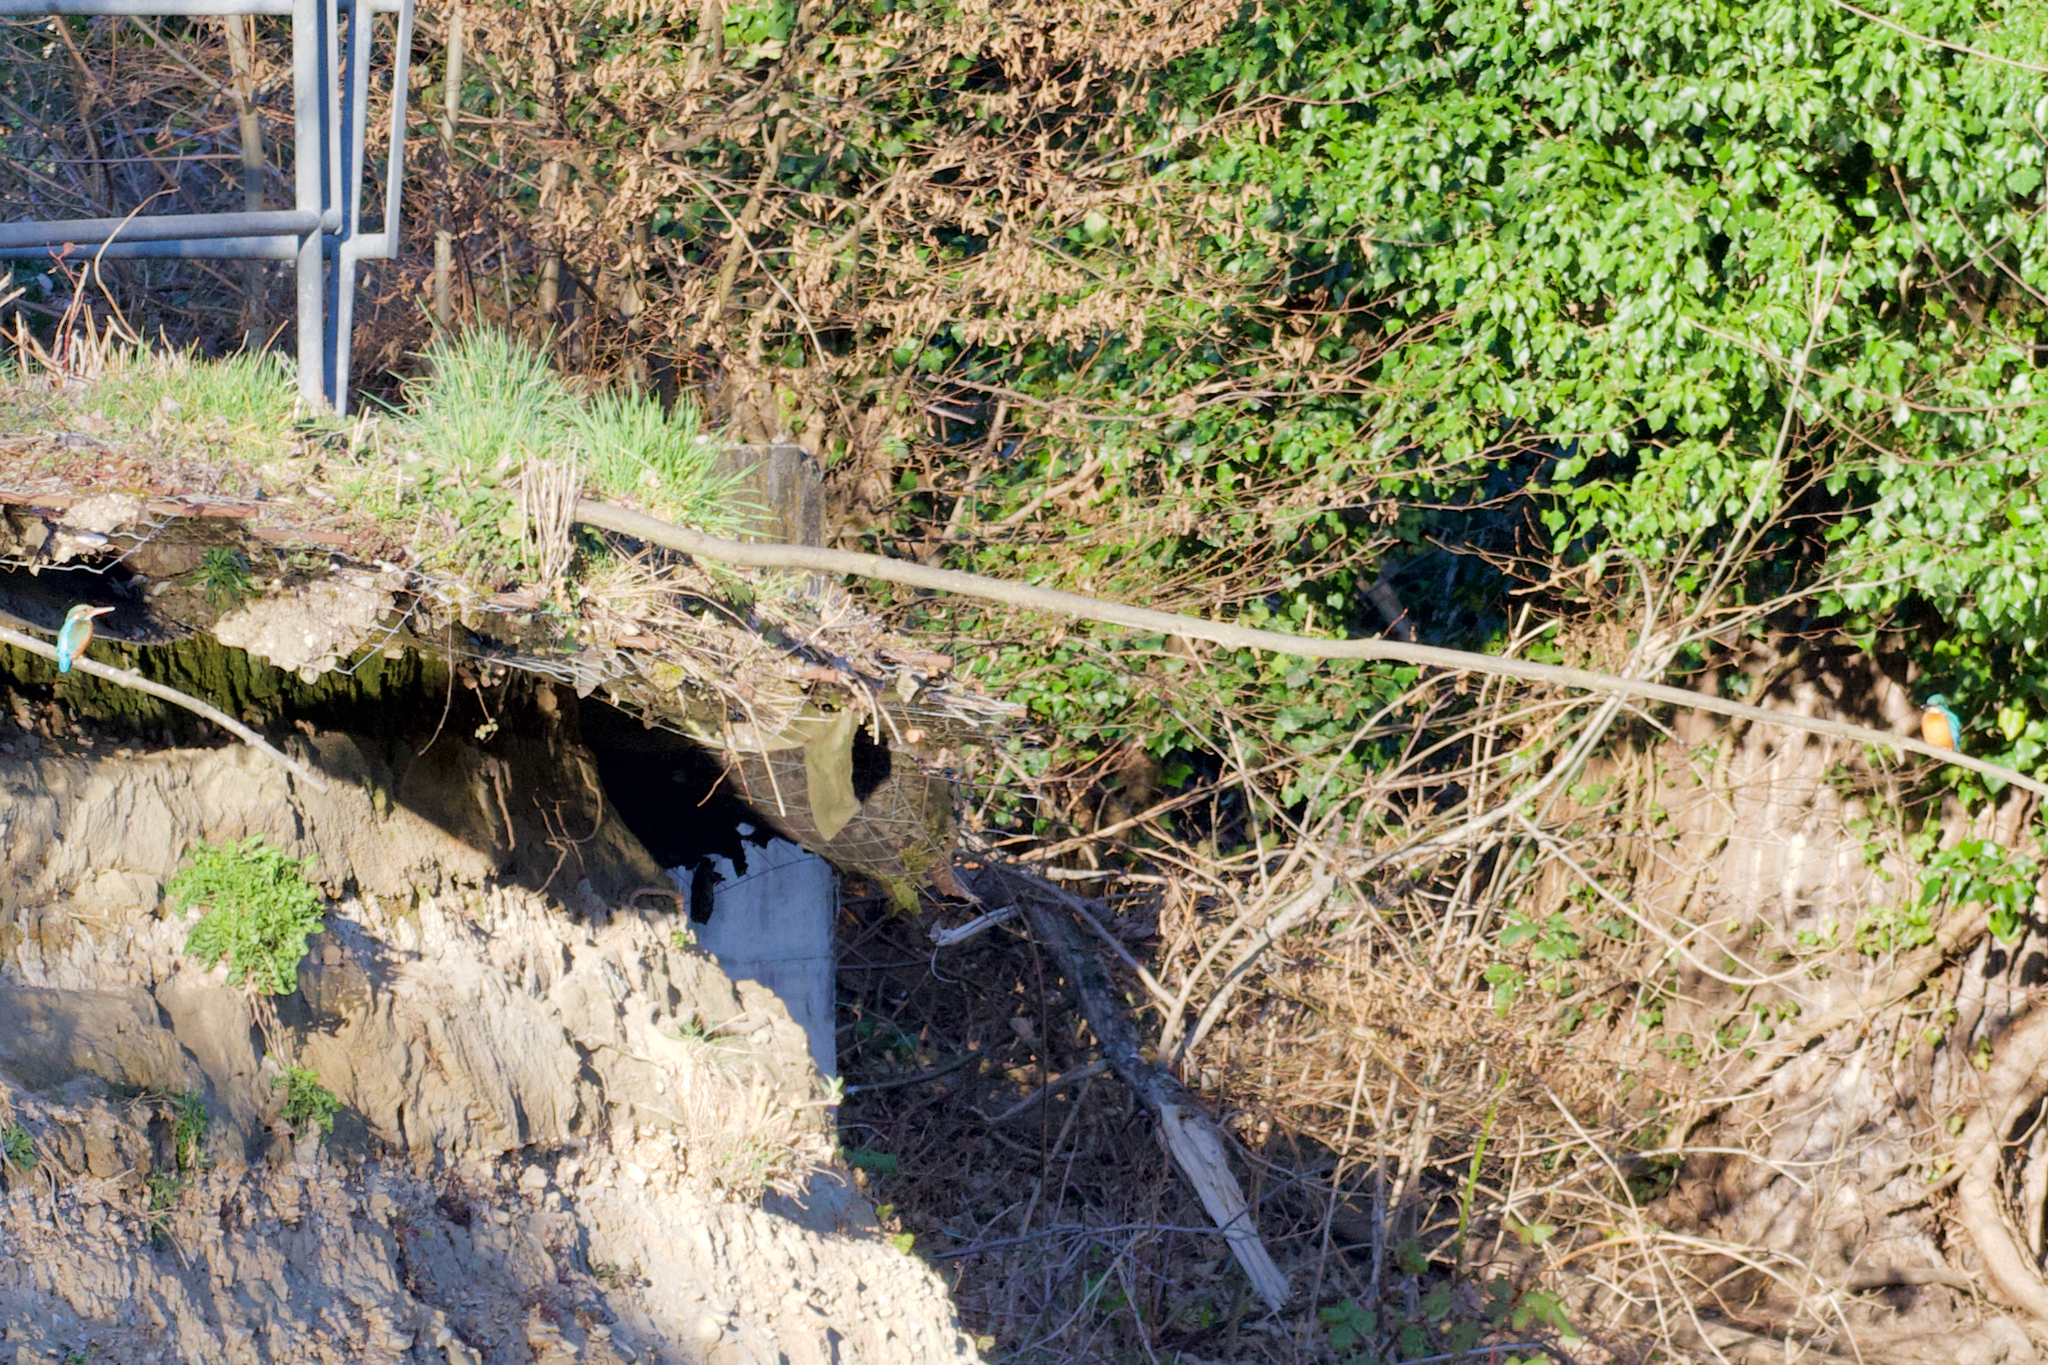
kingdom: Animalia
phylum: Chordata
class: Aves
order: Coraciiformes
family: Alcedinidae
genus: Alcedo
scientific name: Alcedo atthis
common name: Common kingfisher
